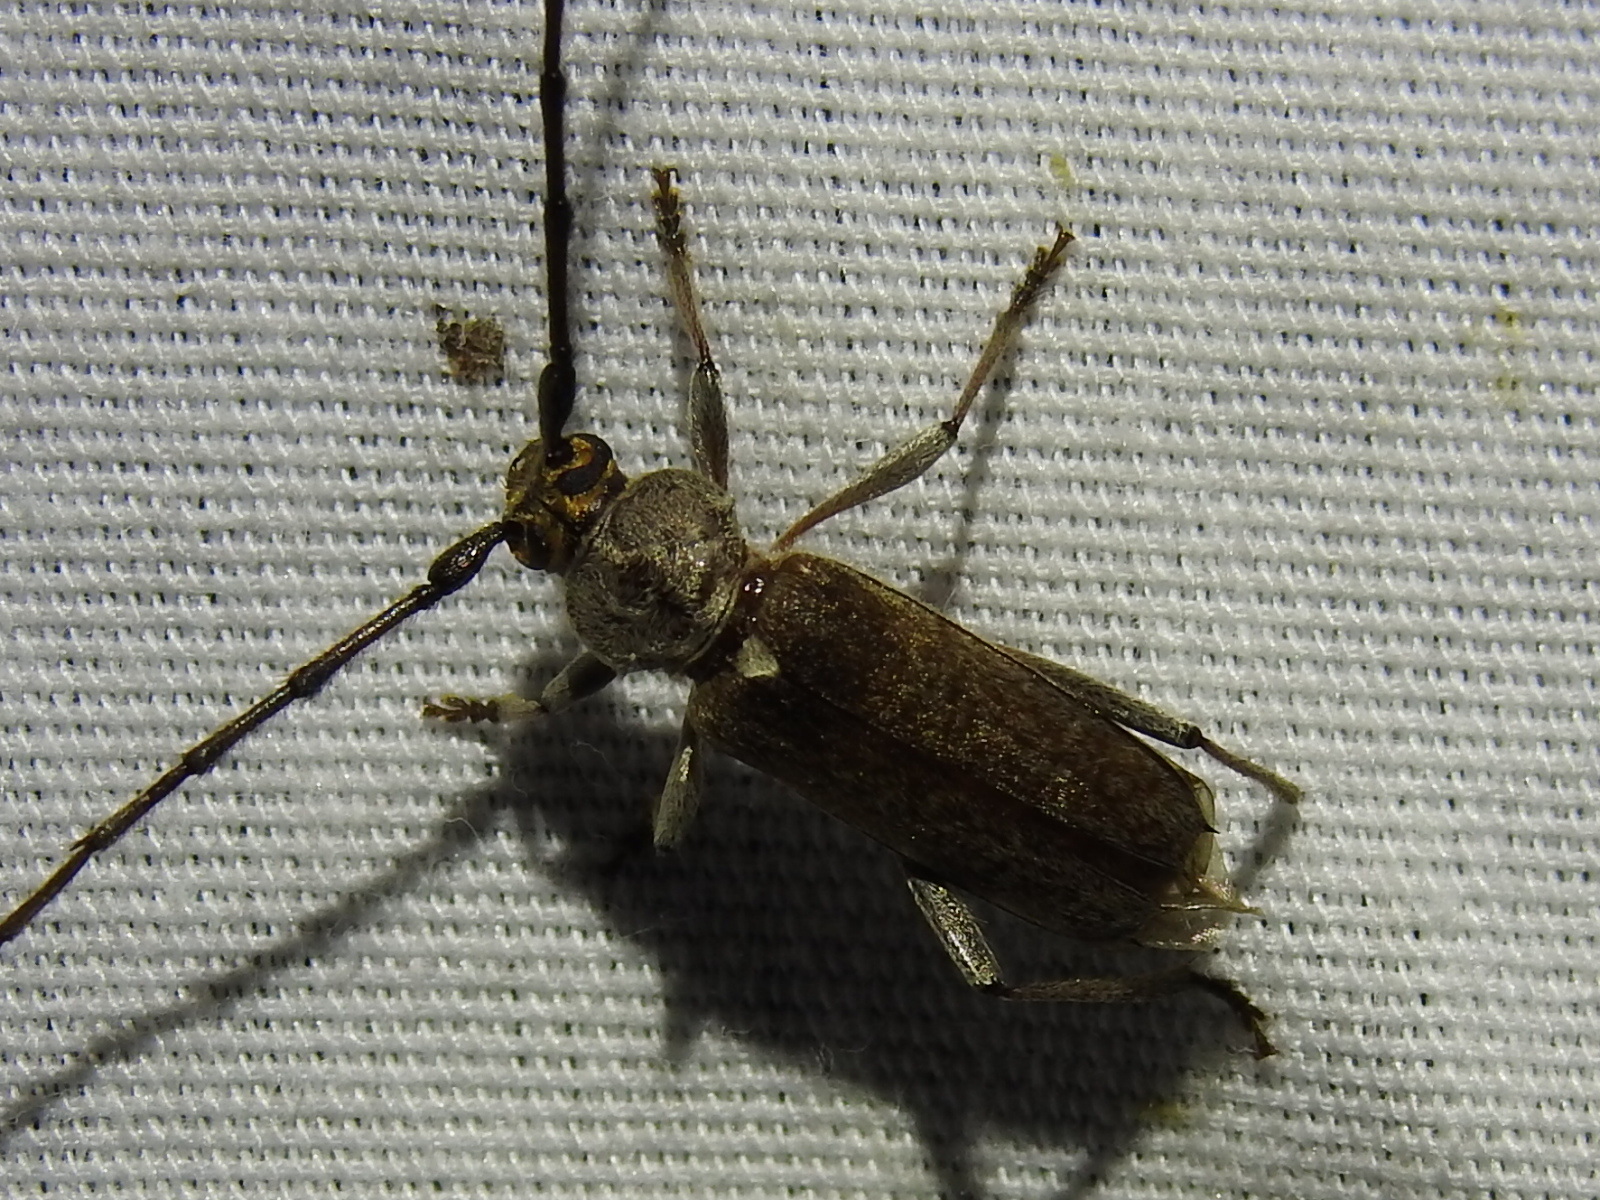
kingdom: Animalia
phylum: Arthropoda
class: Insecta
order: Coleoptera
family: Cerambycidae
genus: Gnaphalodes
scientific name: Gnaphalodes trachyderoides
